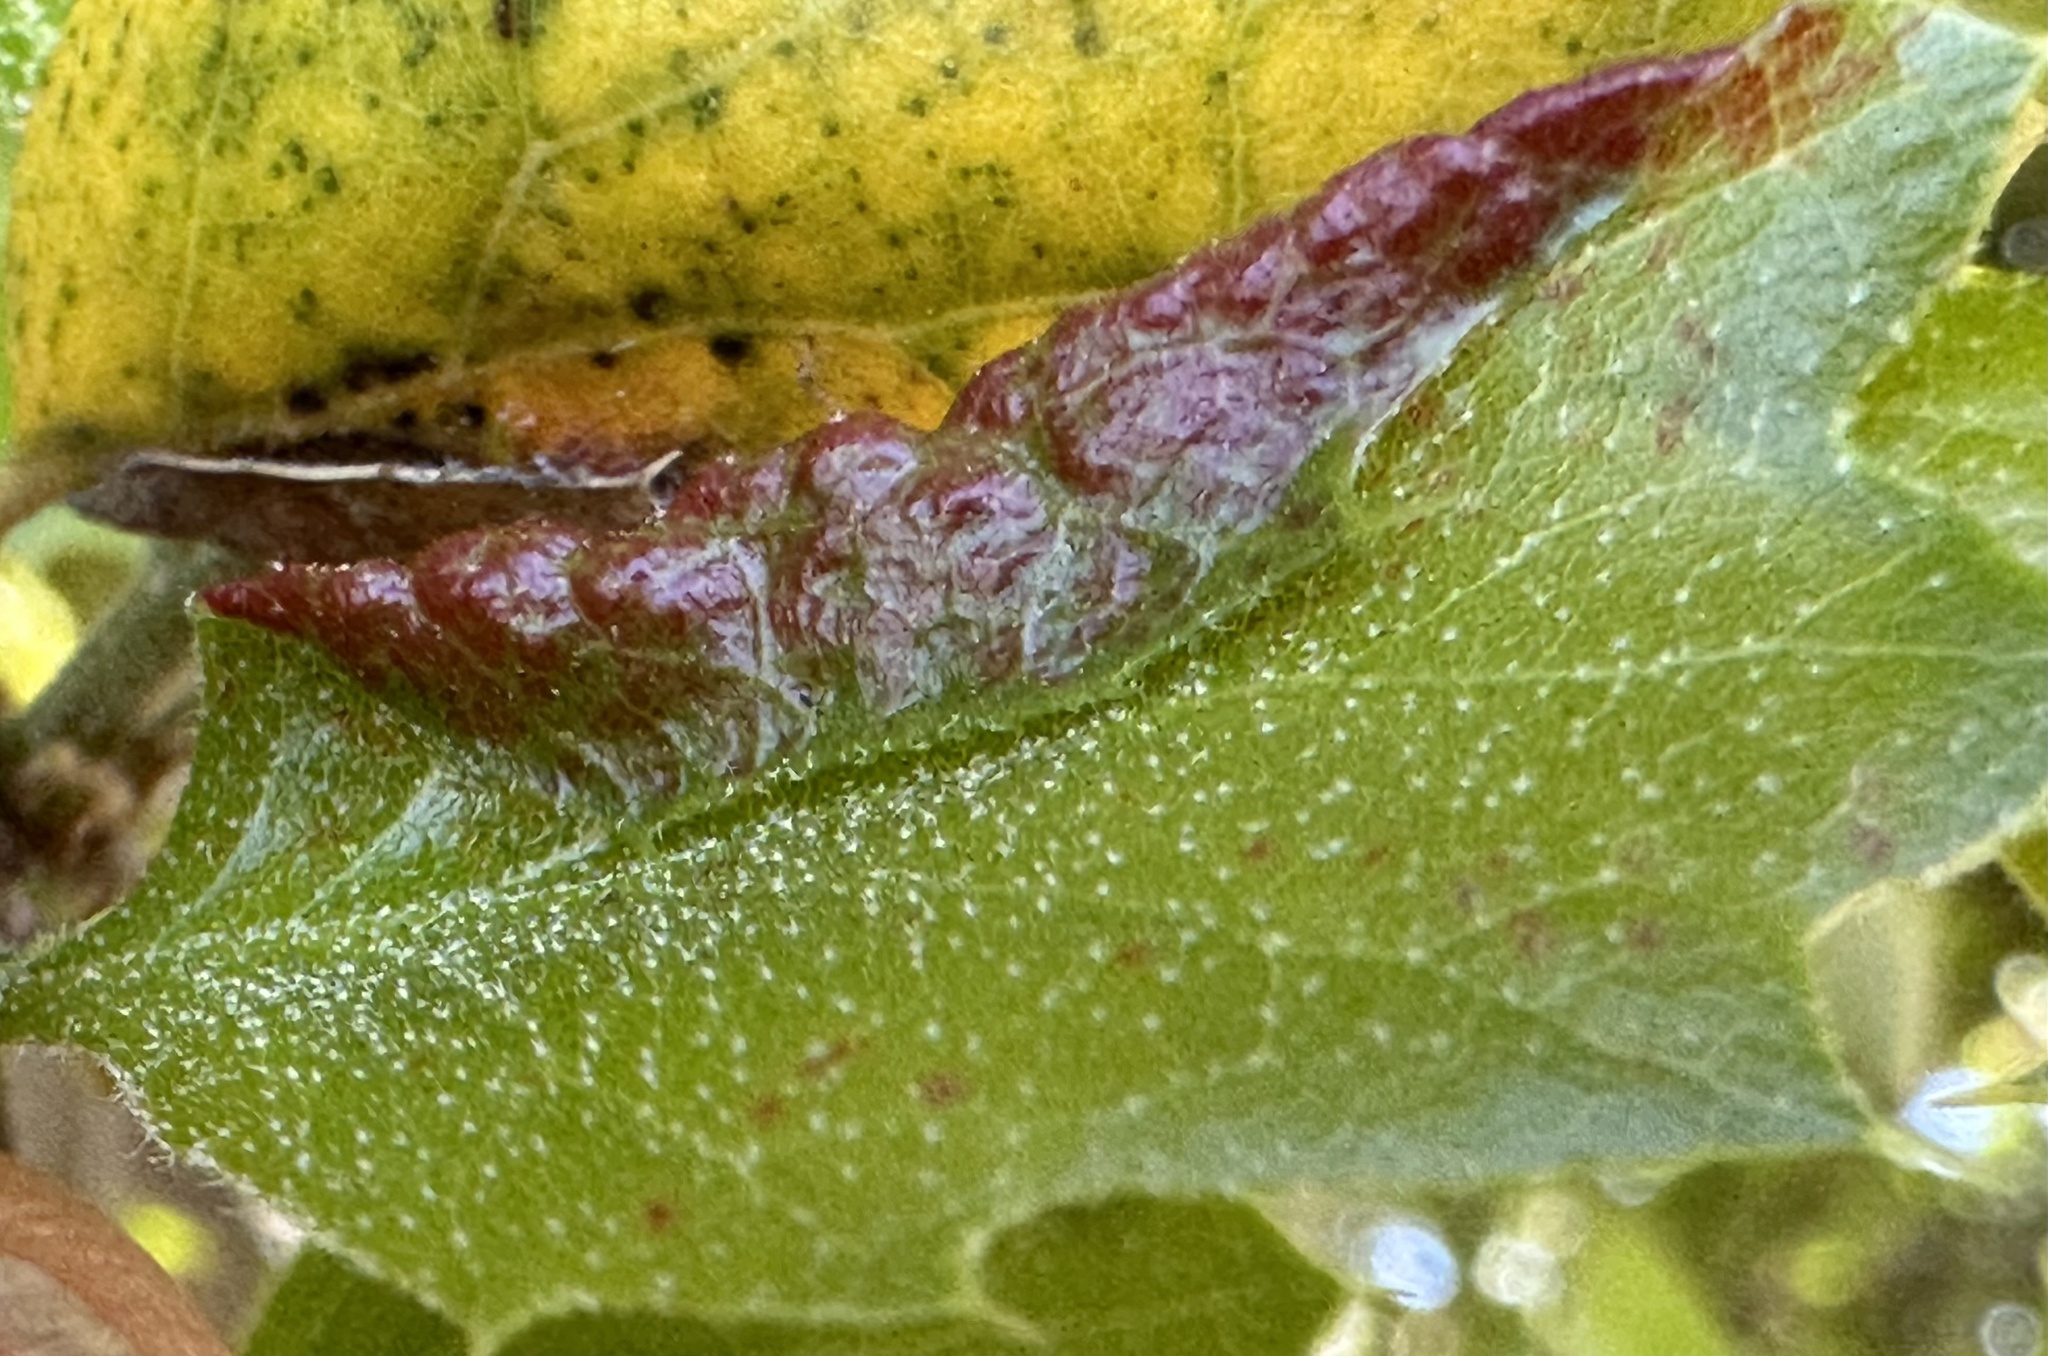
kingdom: Animalia
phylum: Arthropoda
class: Insecta
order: Hemiptera
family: Aphididae
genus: Stegophylla
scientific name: Stegophylla essigi
